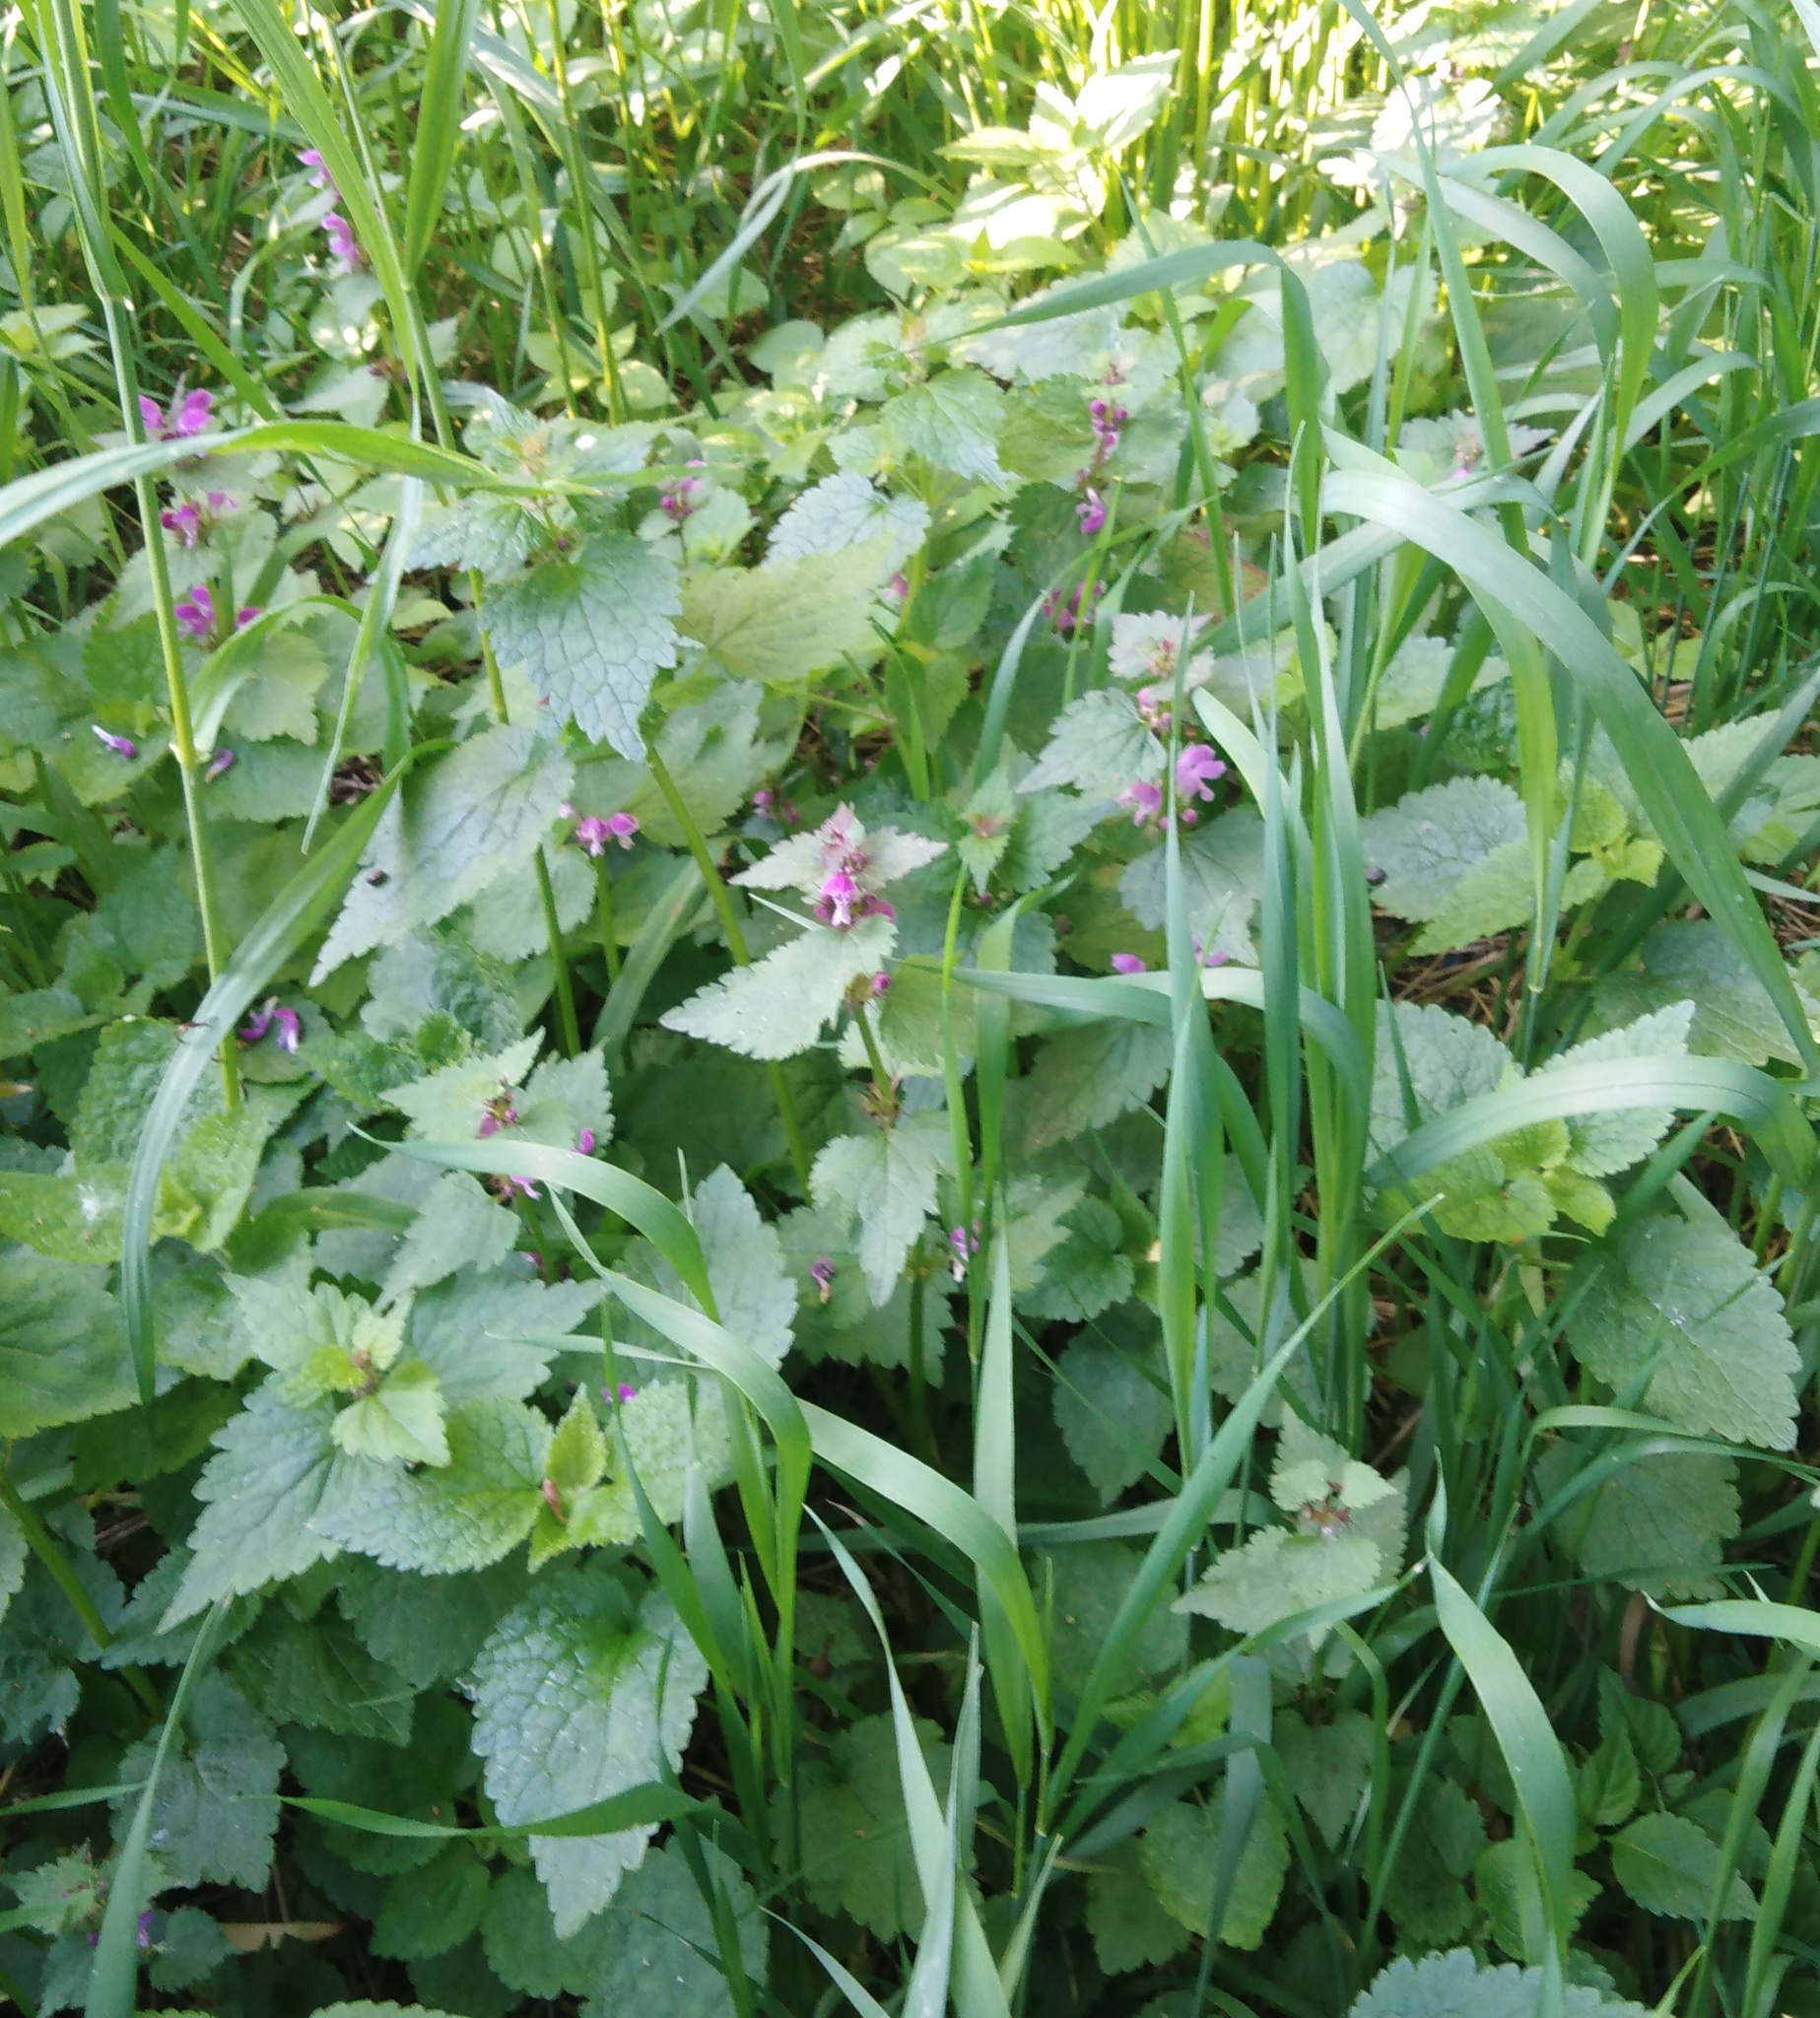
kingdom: Plantae
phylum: Tracheophyta
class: Magnoliopsida
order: Lamiales
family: Lamiaceae
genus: Lamium
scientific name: Lamium maculatum
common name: Spotted dead-nettle
